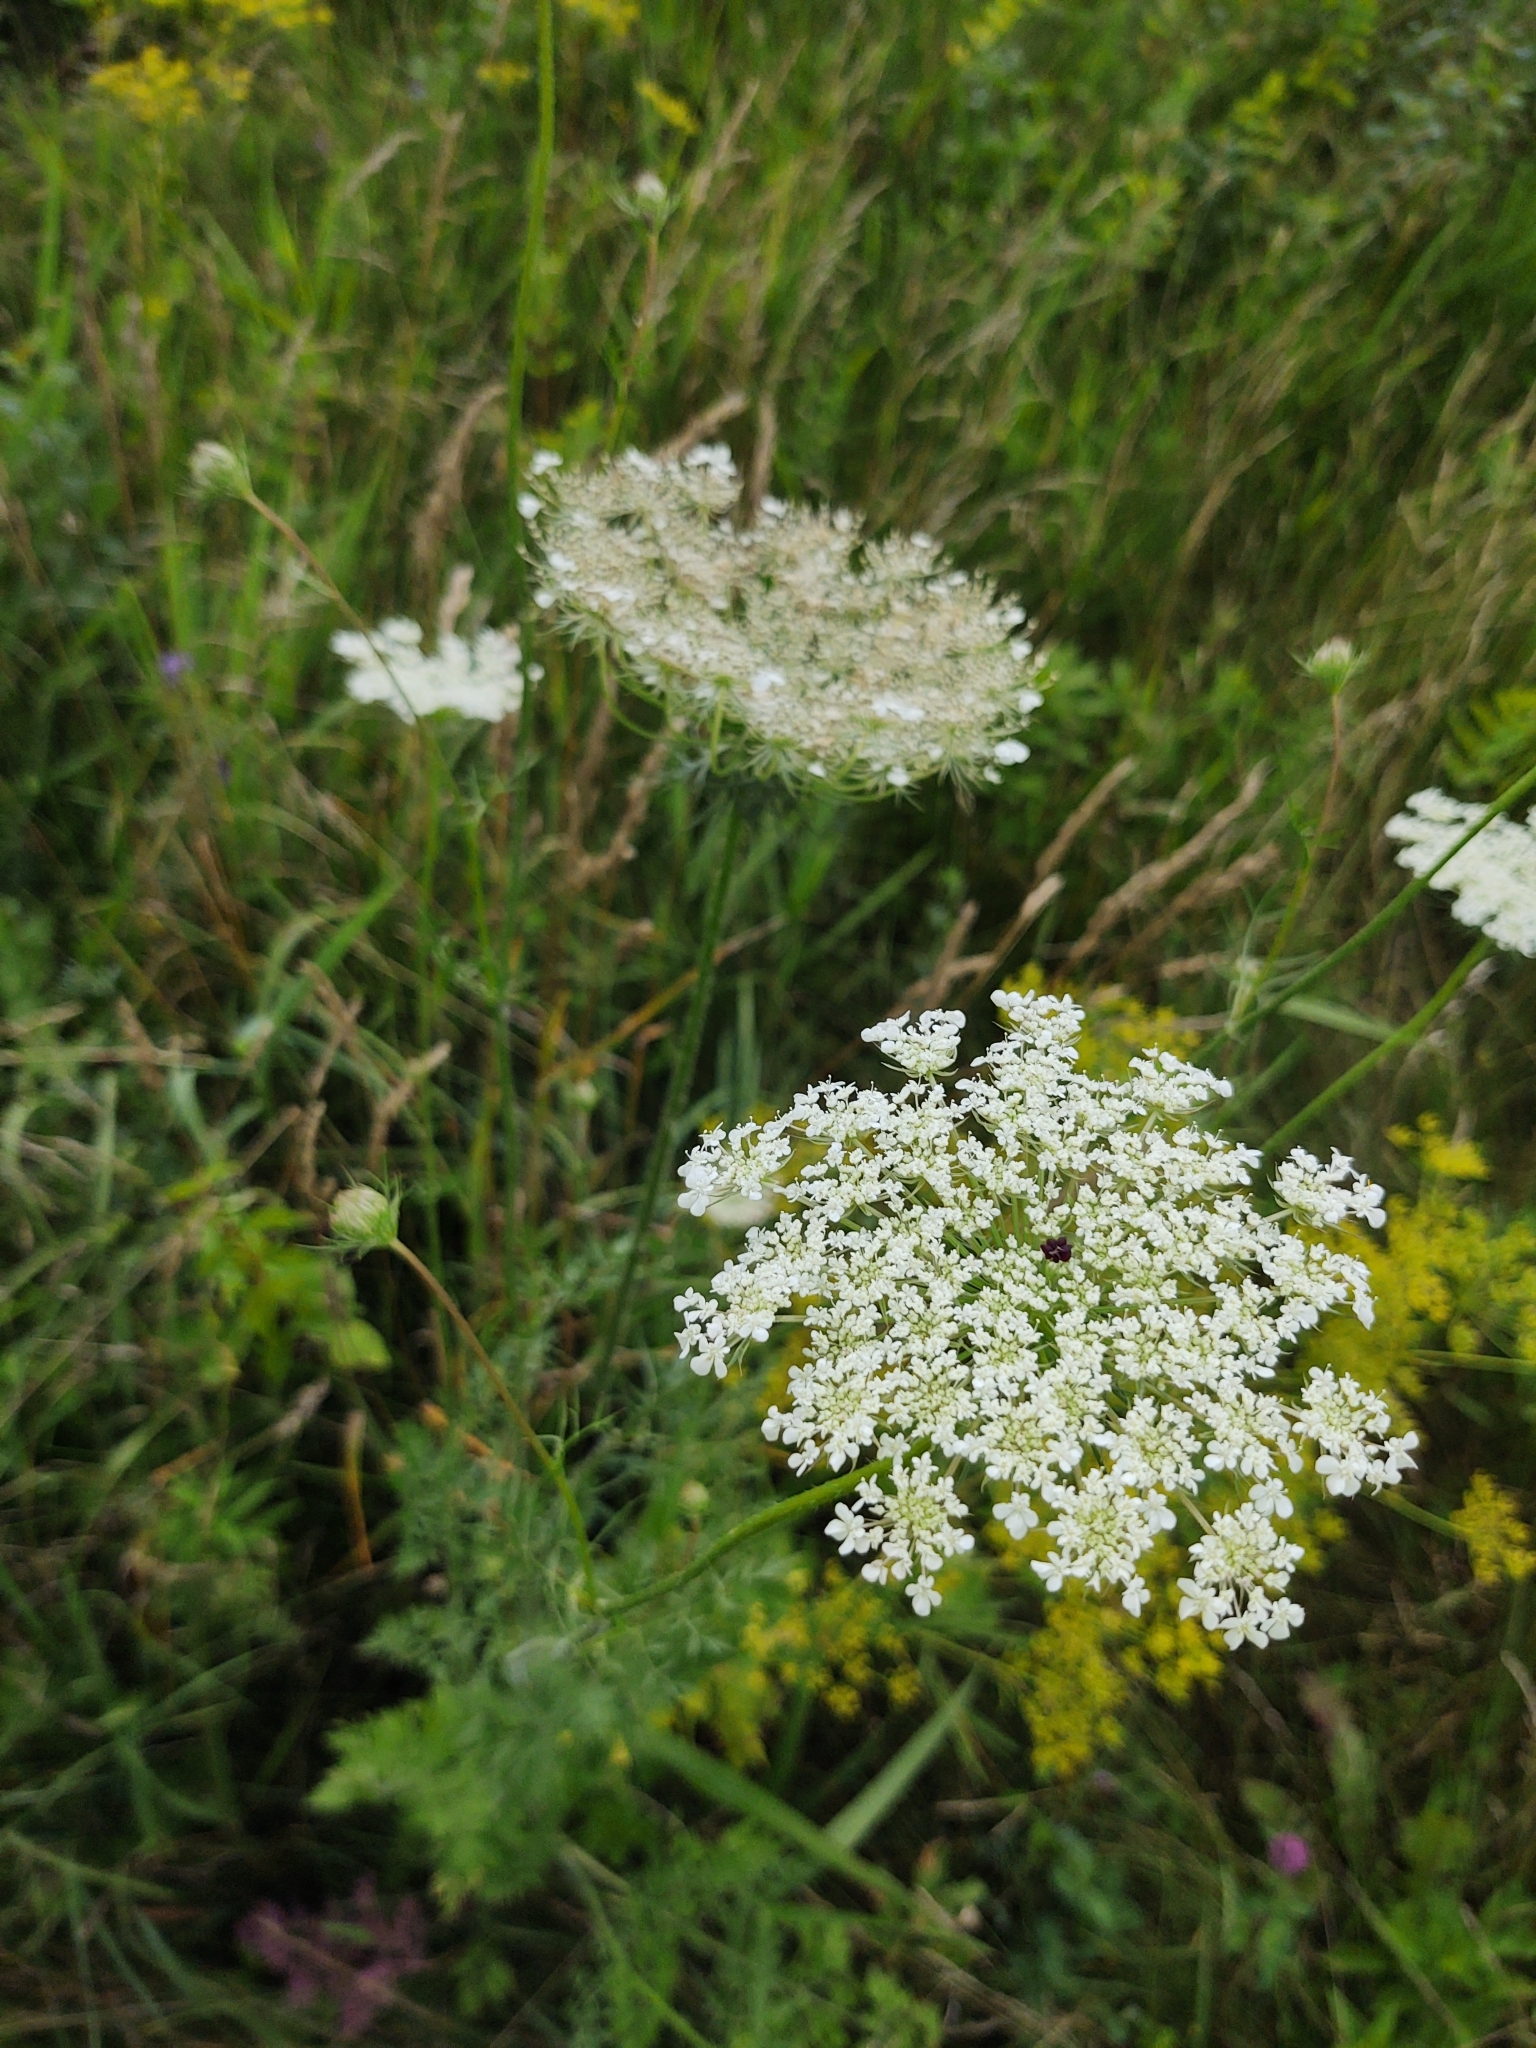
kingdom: Plantae
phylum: Tracheophyta
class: Magnoliopsida
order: Apiales
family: Apiaceae
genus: Daucus
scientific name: Daucus carota
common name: Wild carrot
